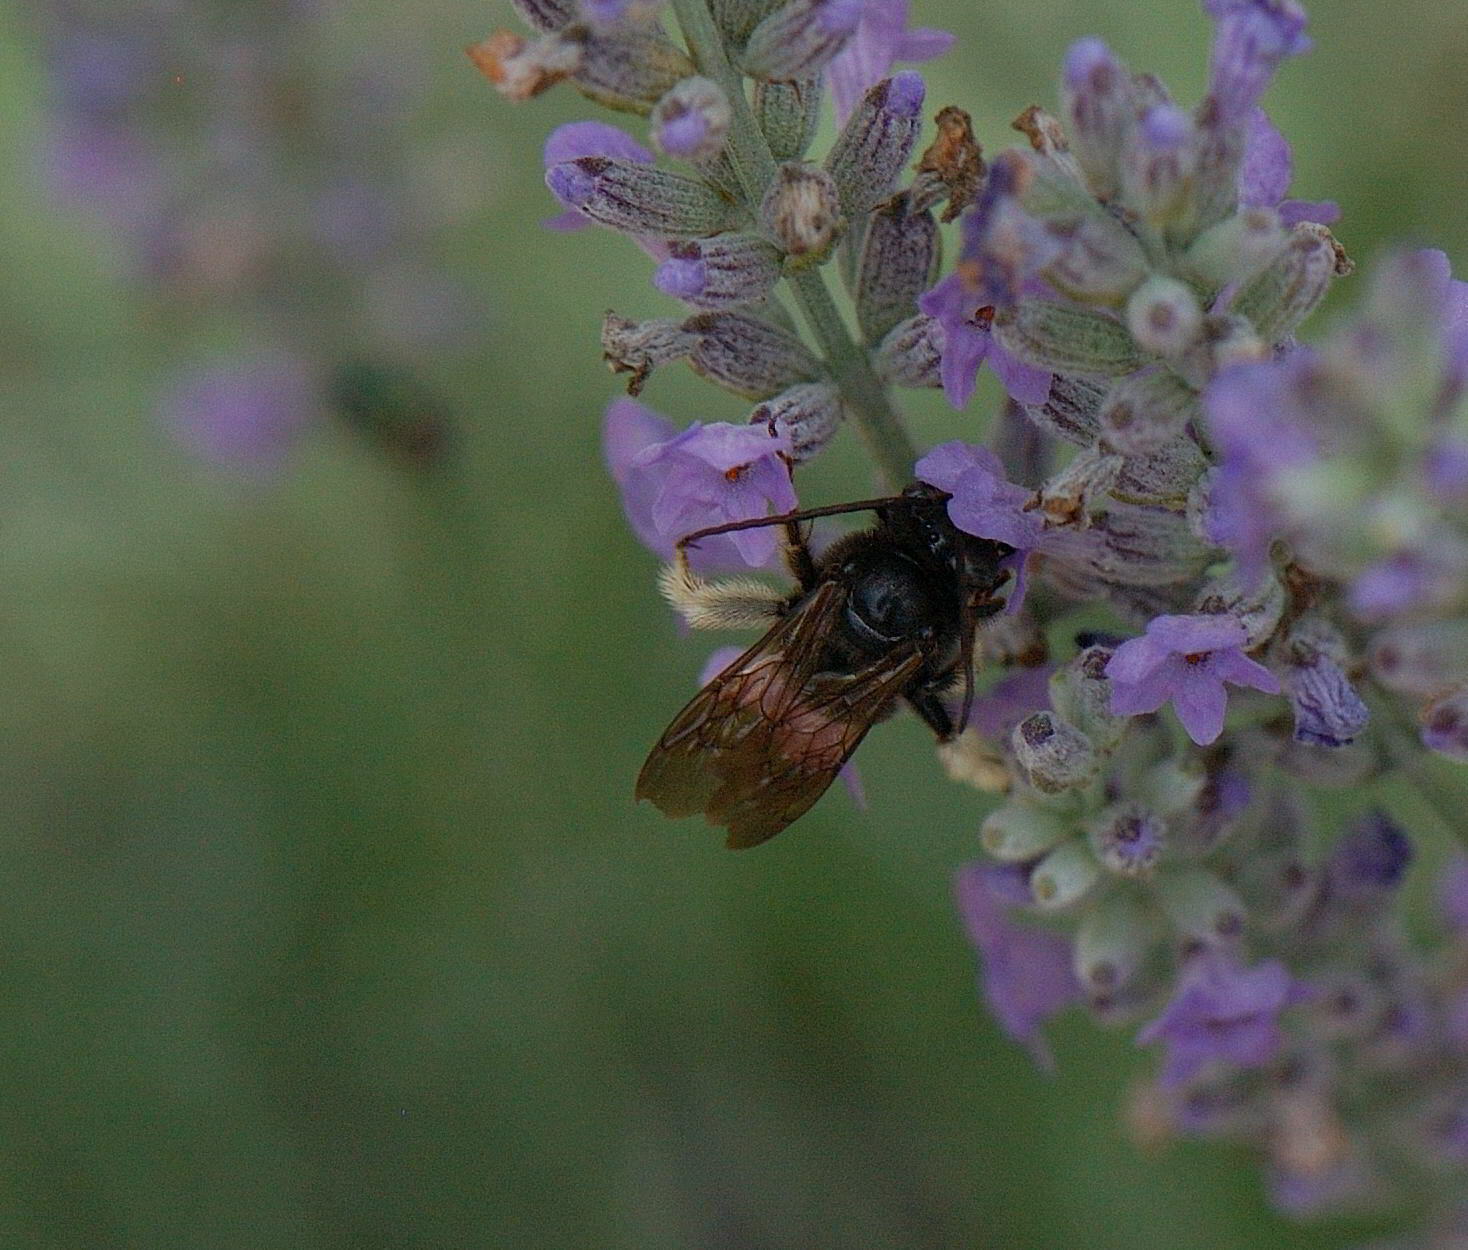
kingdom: Animalia
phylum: Arthropoda
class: Insecta
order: Hymenoptera
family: Apidae
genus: Melissodes
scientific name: Melissodes bimaculatus
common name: Two-spotted long-horned bee
